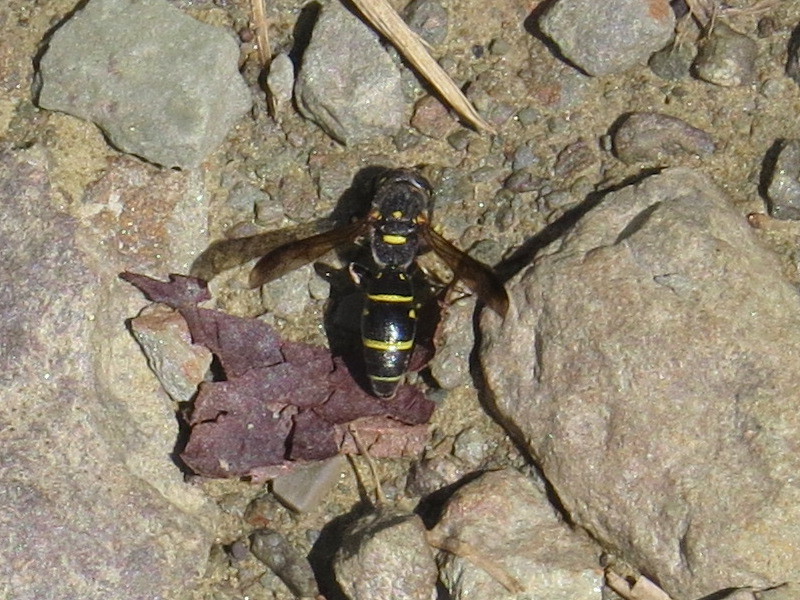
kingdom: Animalia
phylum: Arthropoda
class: Insecta
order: Hymenoptera
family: Eumenidae
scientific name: Eumenidae
